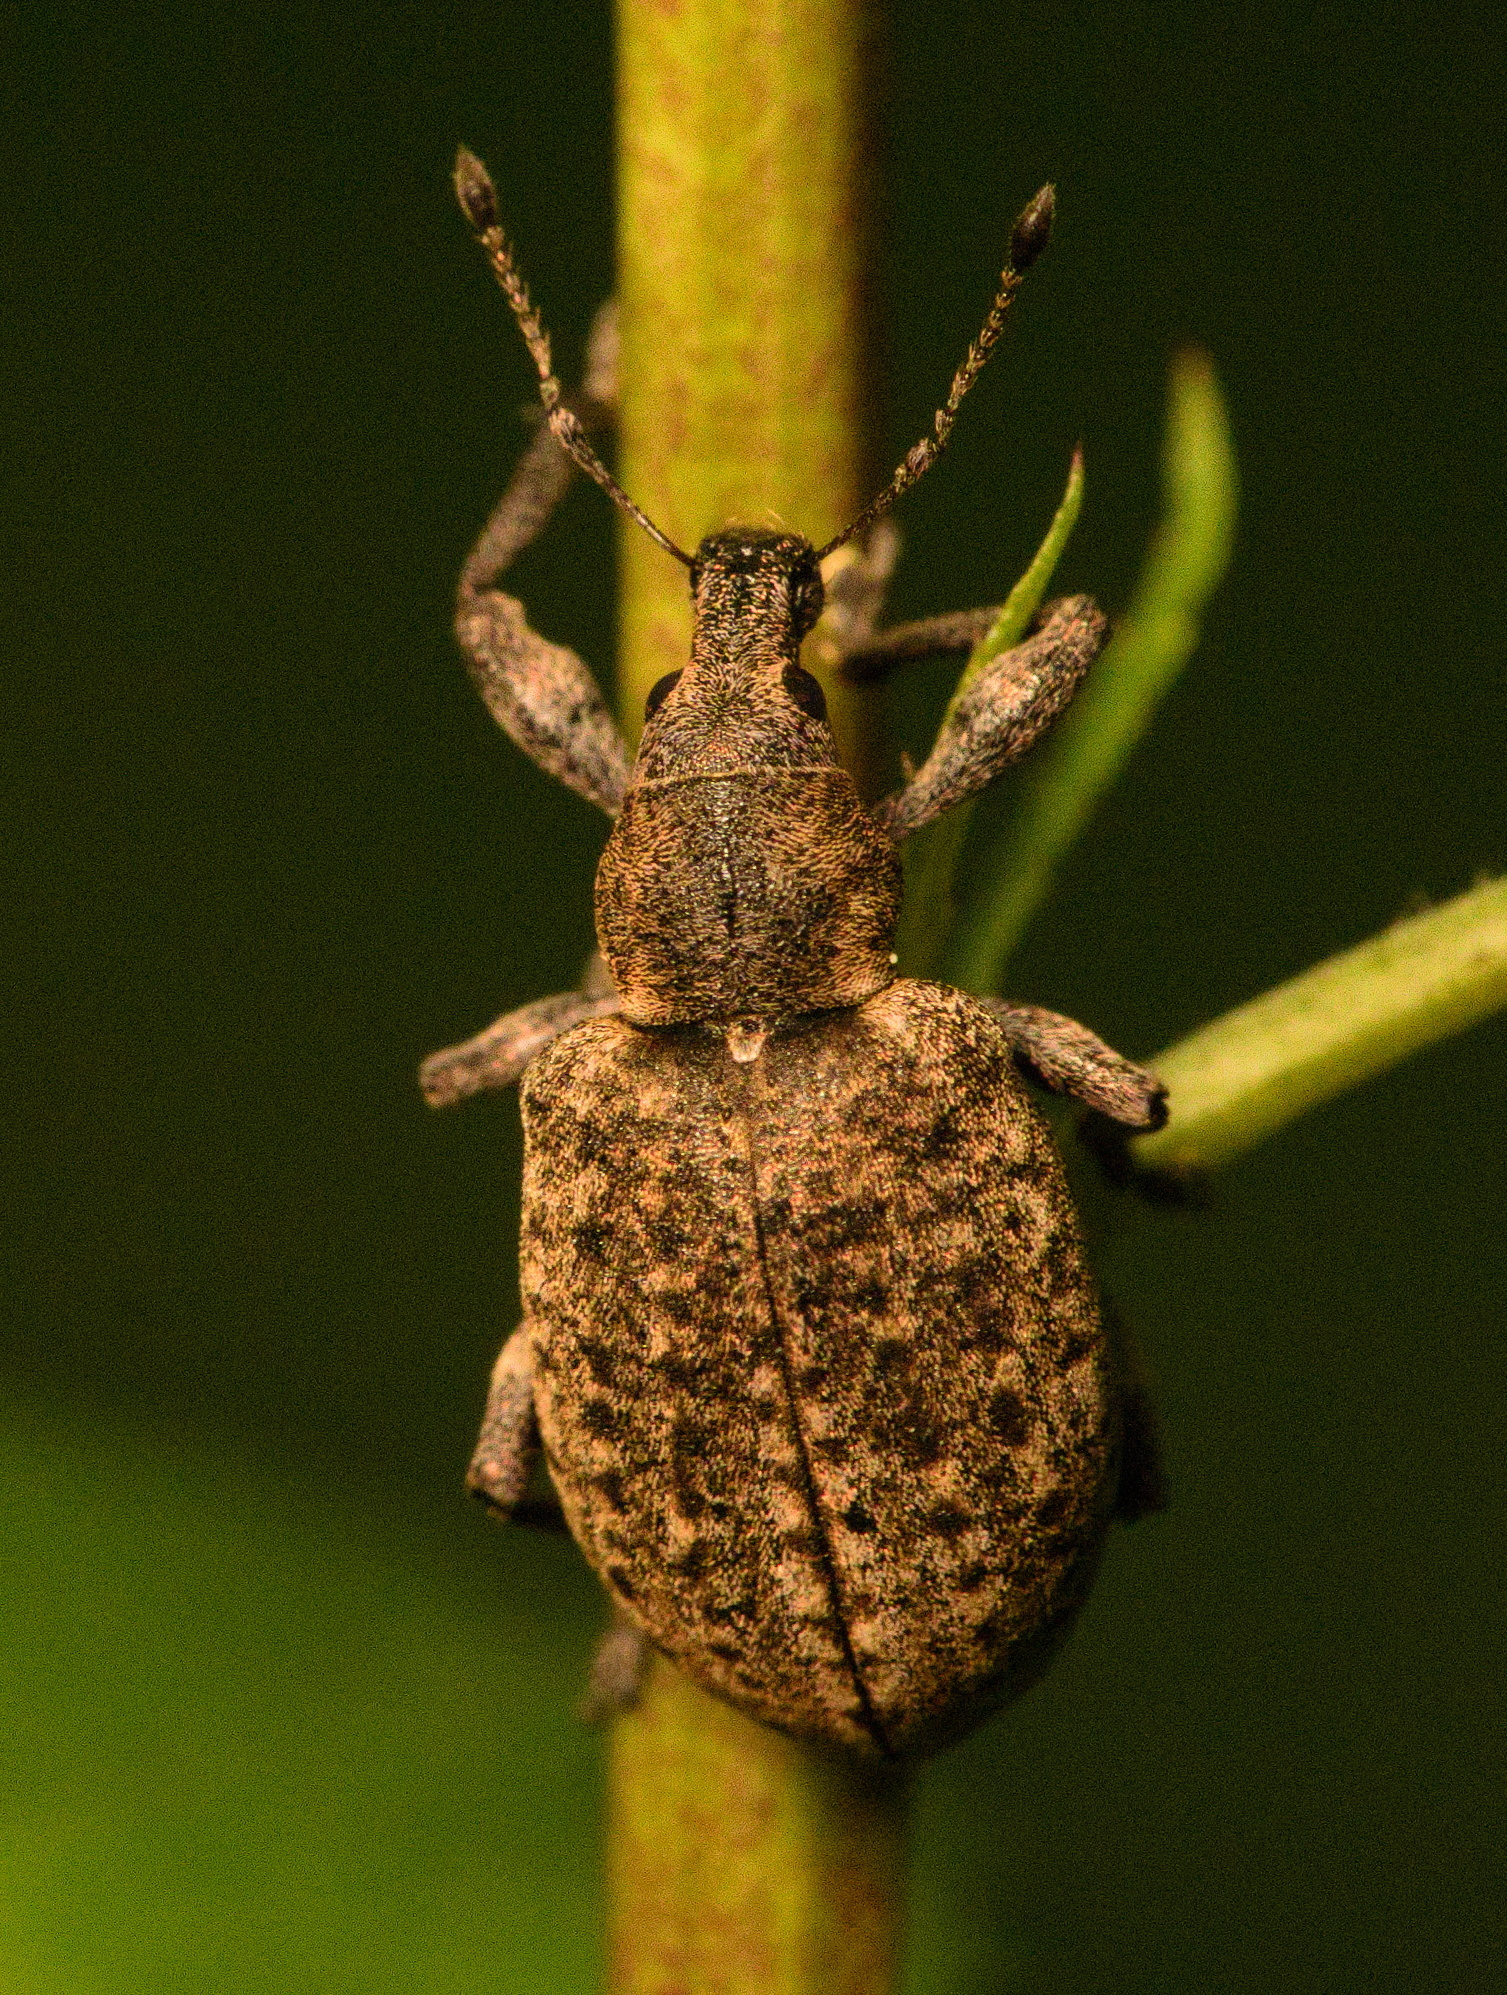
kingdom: Animalia
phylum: Arthropoda
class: Insecta
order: Coleoptera
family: Curculionidae
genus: Liophloeus
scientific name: Liophloeus tessulatus
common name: Weevil
